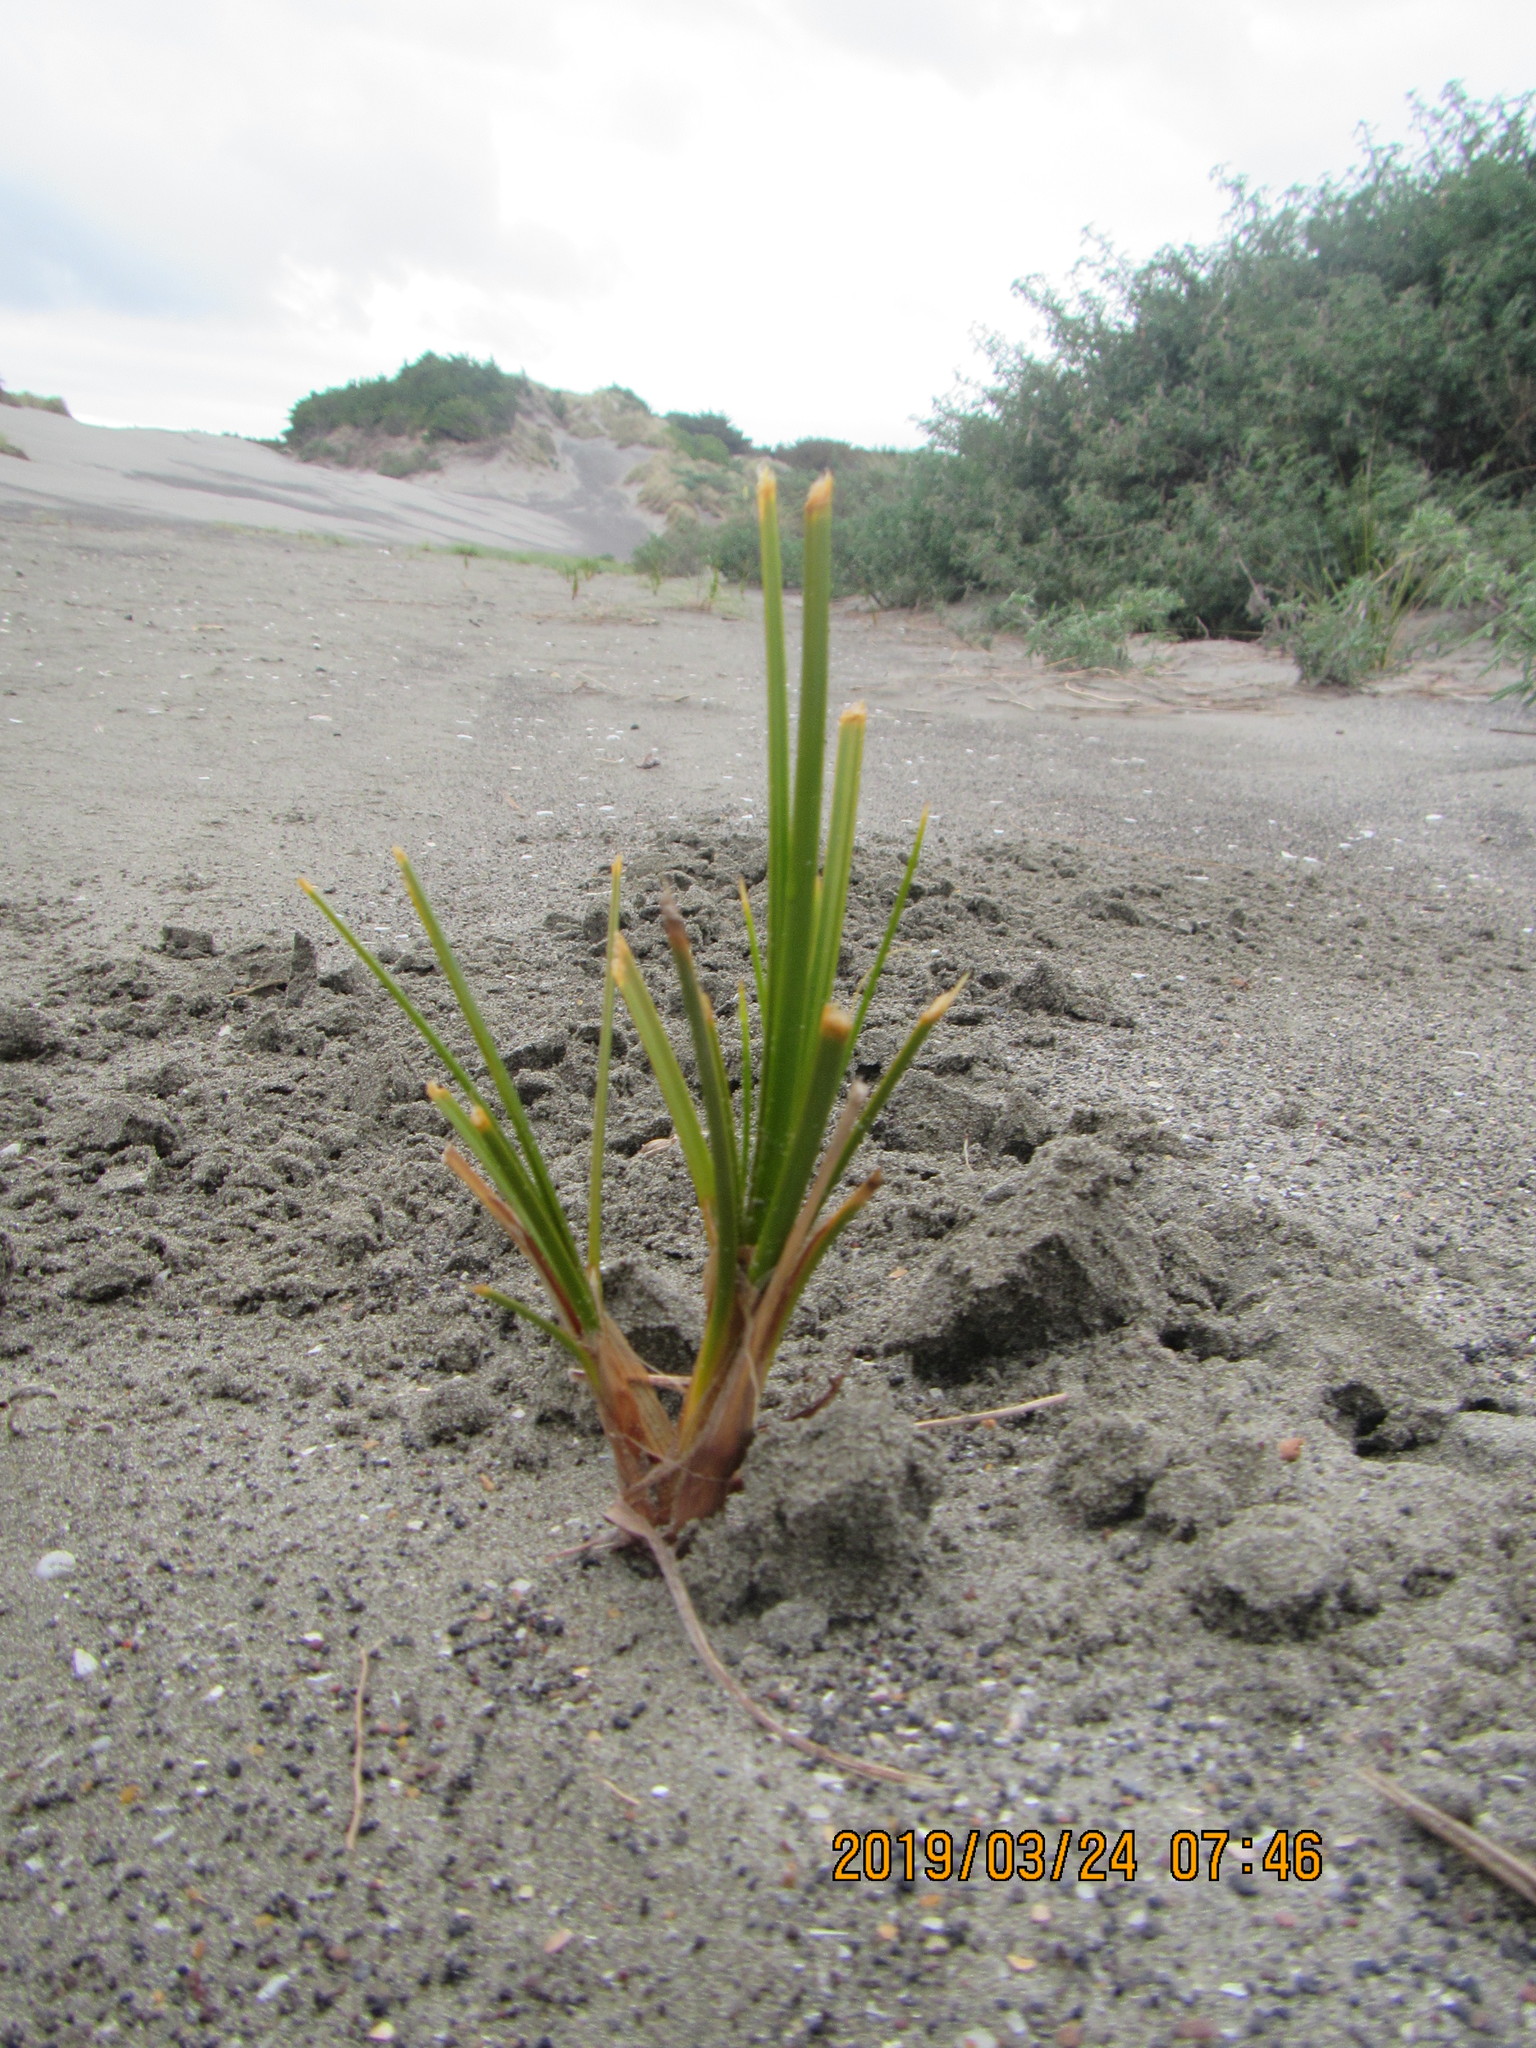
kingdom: Plantae
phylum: Tracheophyta
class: Liliopsida
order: Poales
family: Cyperaceae
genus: Ficinia
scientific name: Ficinia spiralis
